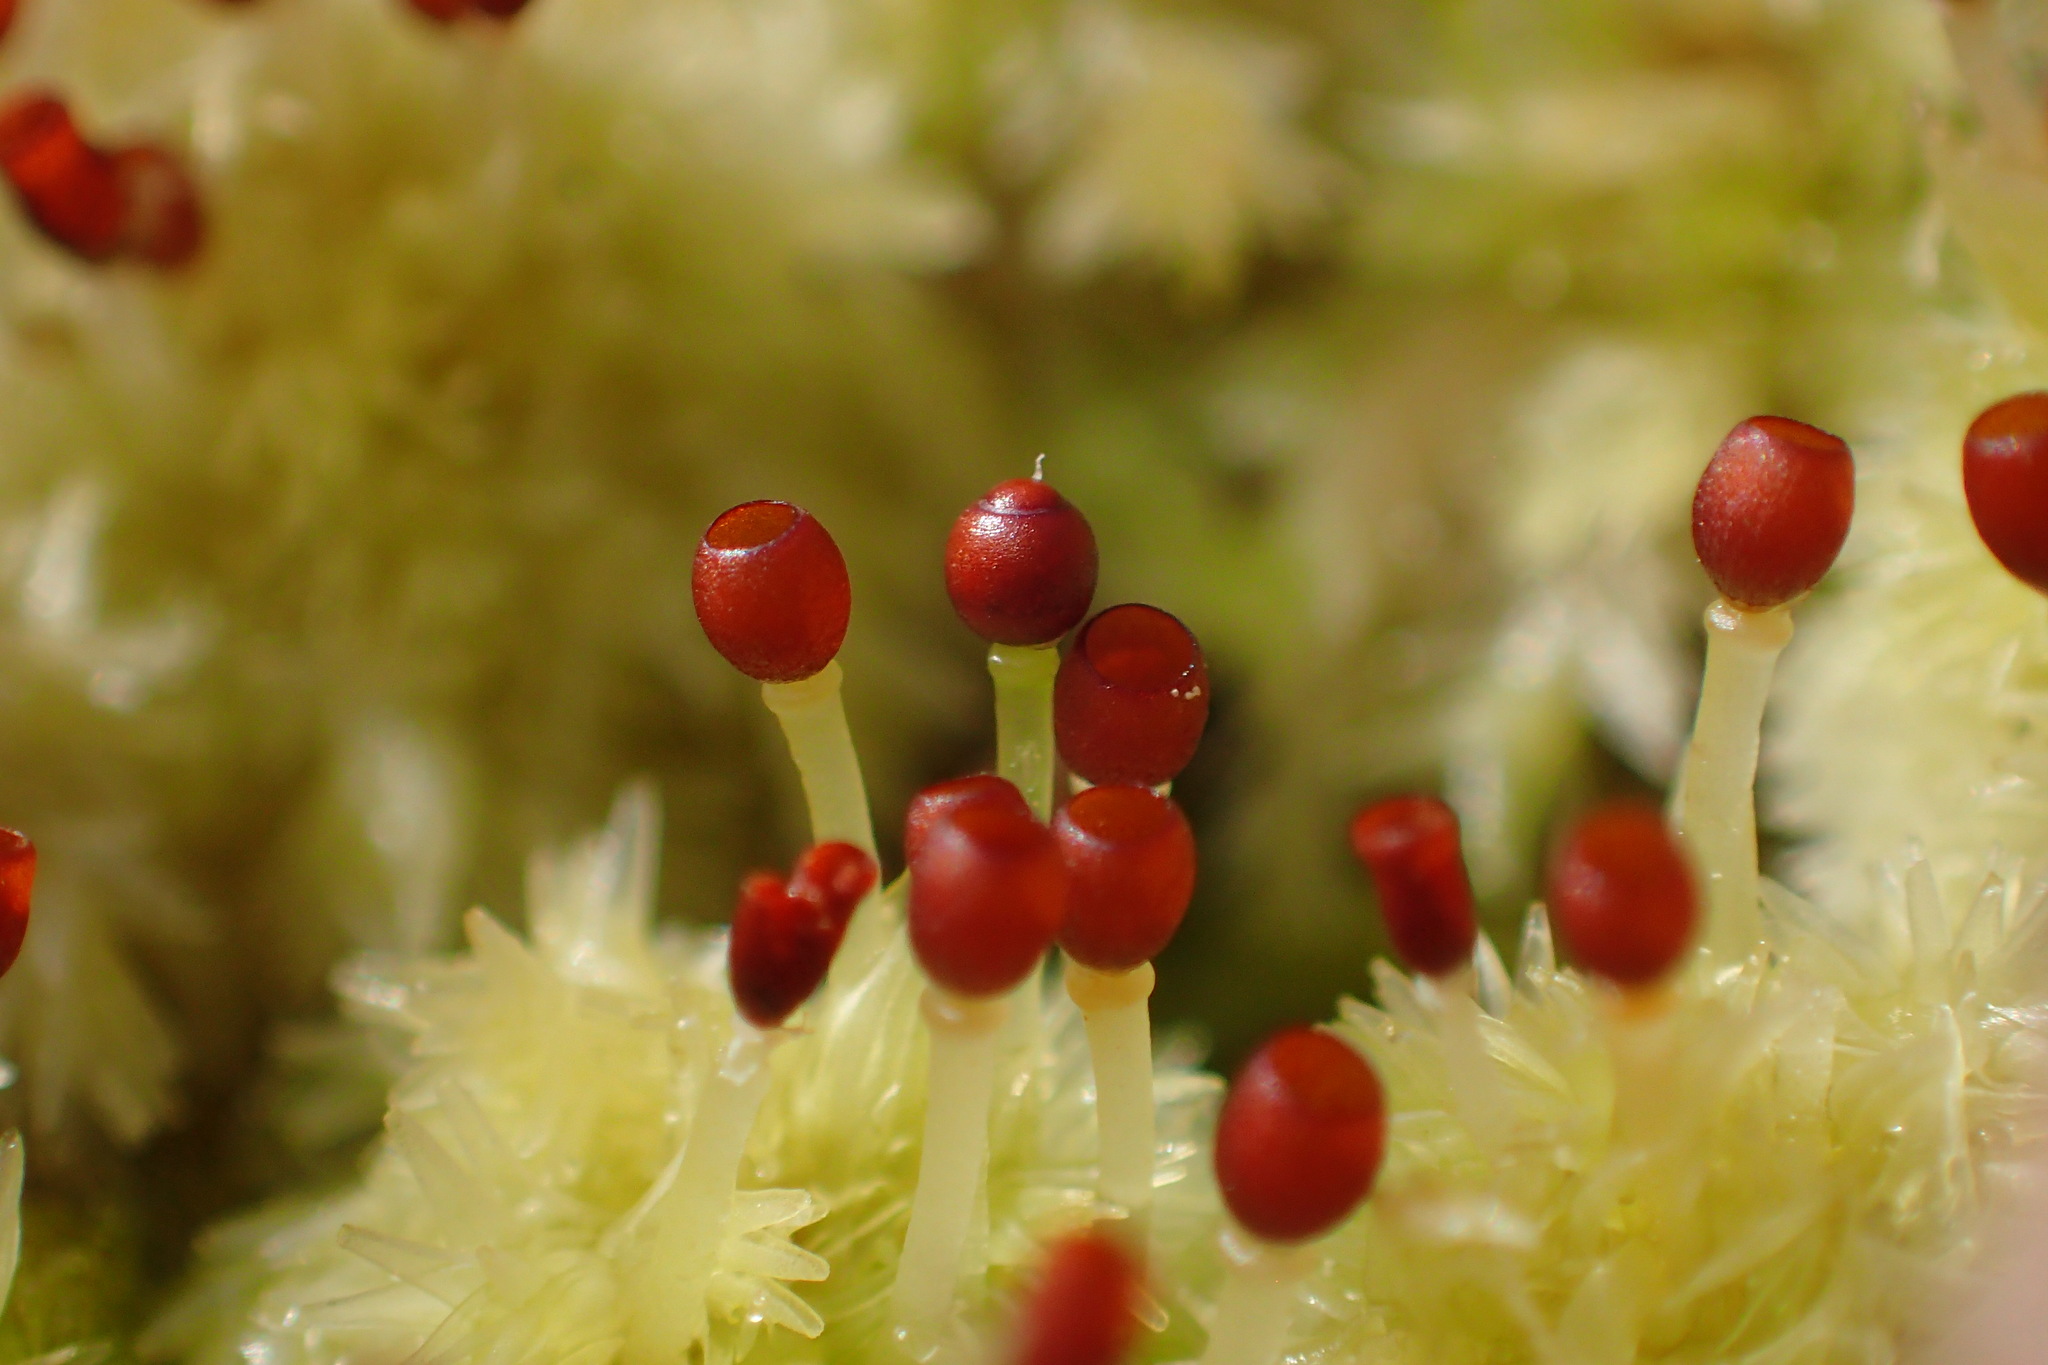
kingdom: Plantae
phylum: Bryophyta
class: Sphagnopsida
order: Sphagnales
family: Sphagnaceae
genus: Sphagnum
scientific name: Sphagnum strictum
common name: Pale bog-moss
